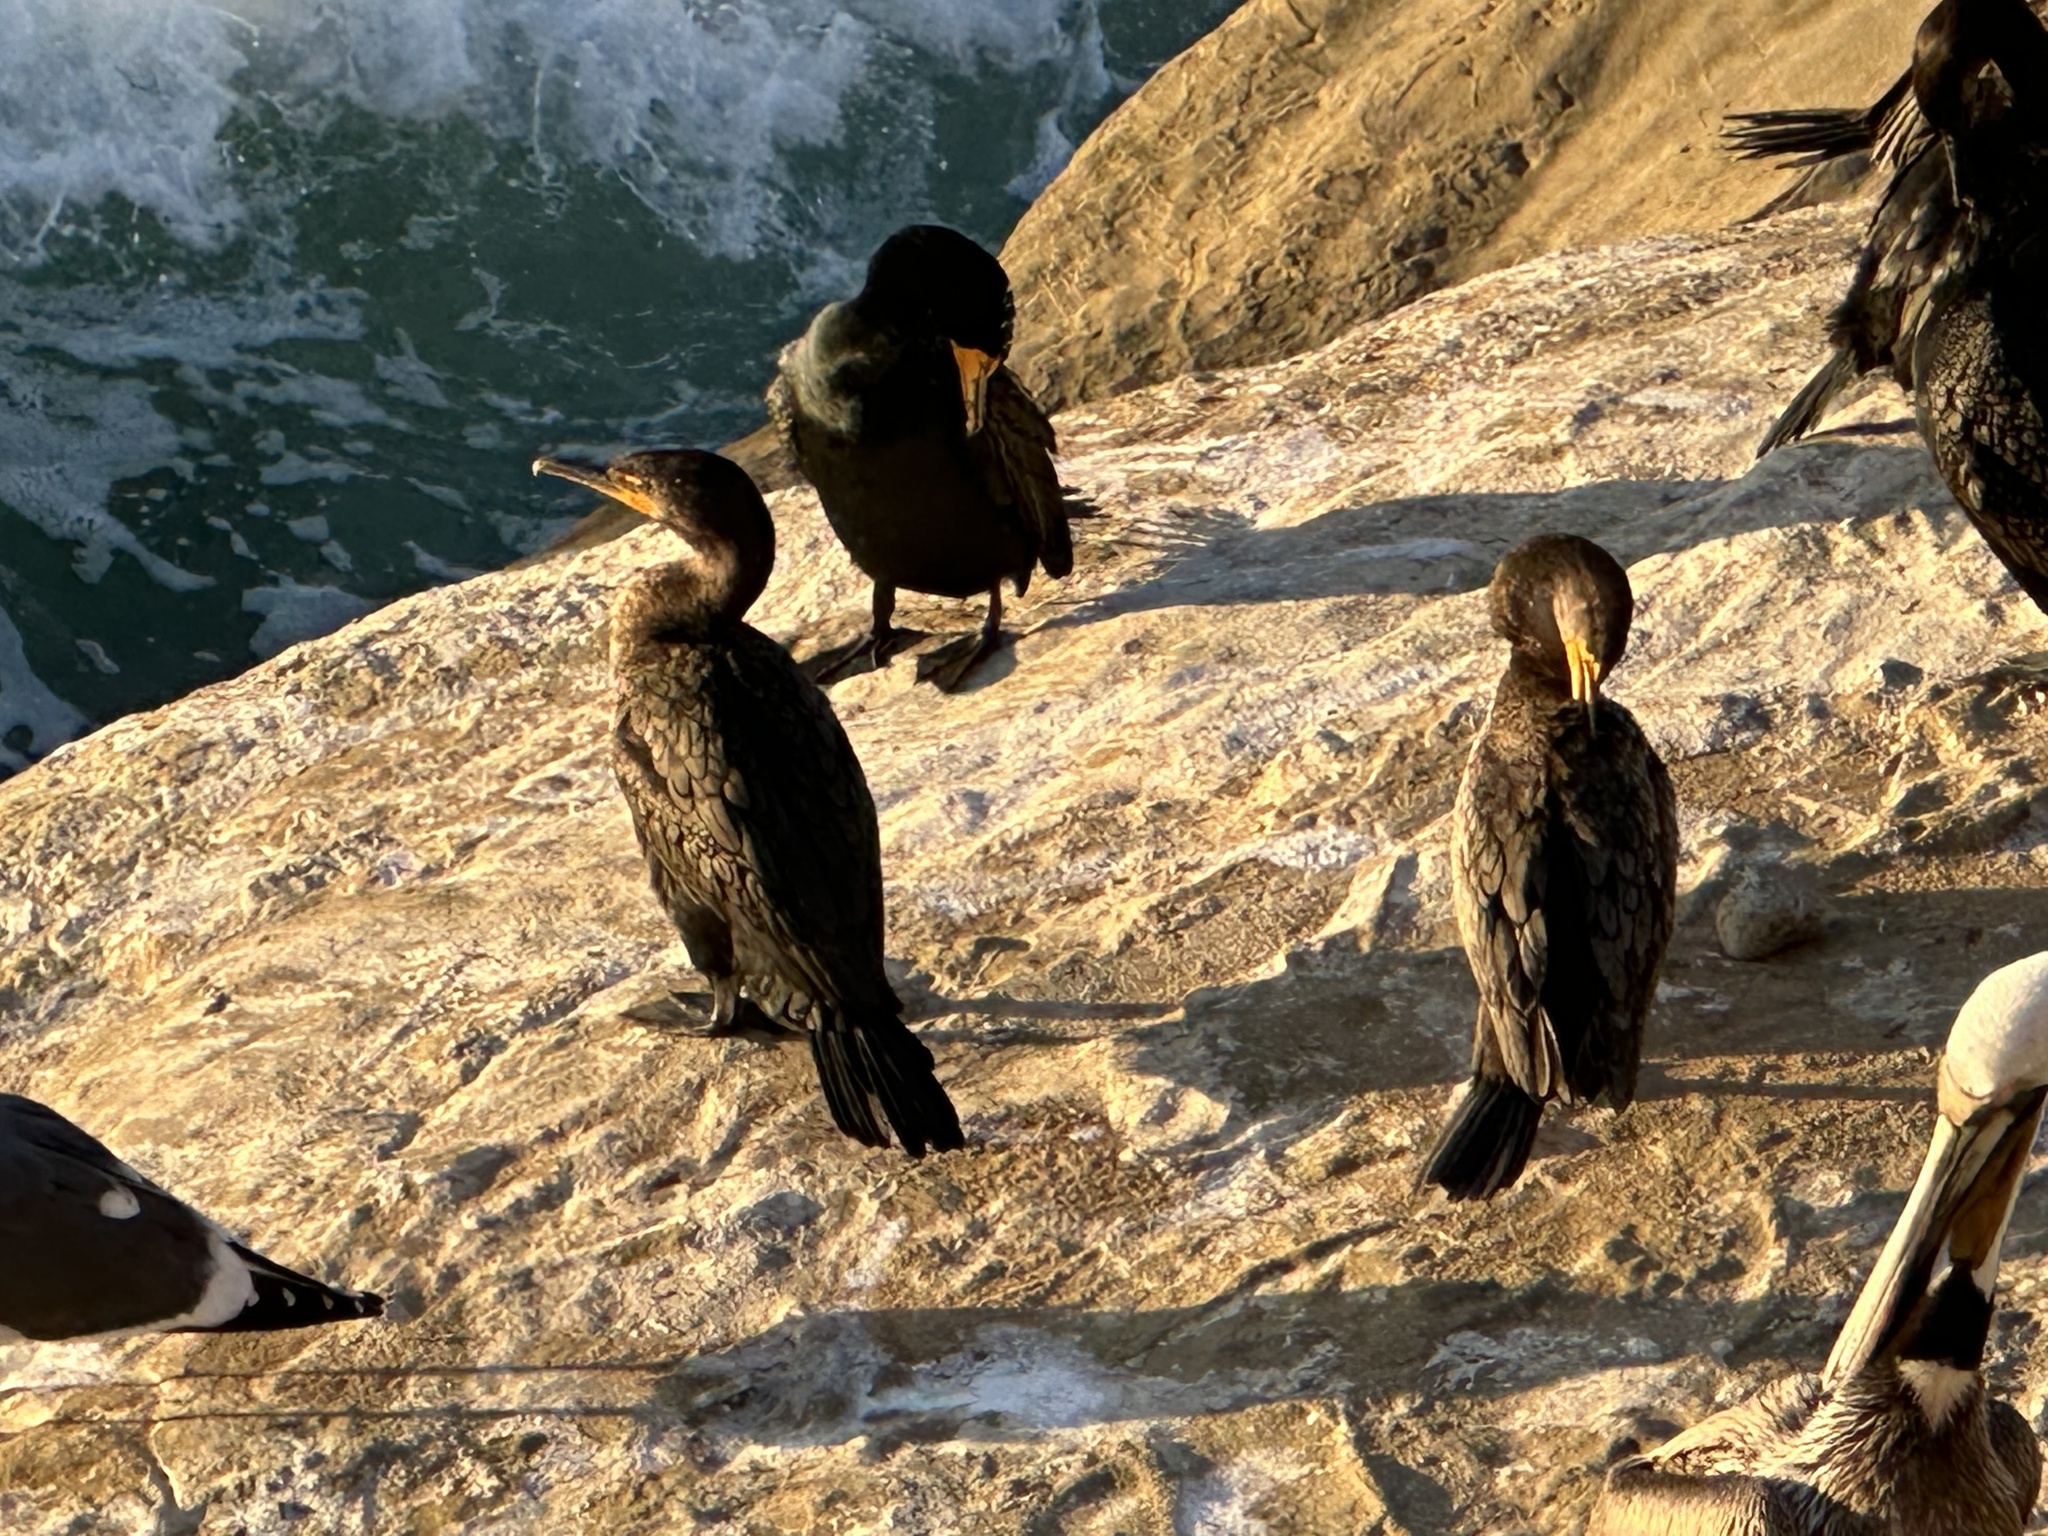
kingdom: Animalia
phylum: Chordata
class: Aves
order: Suliformes
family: Phalacrocoracidae
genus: Phalacrocorax
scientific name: Phalacrocorax auritus
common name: Double-crested cormorant
